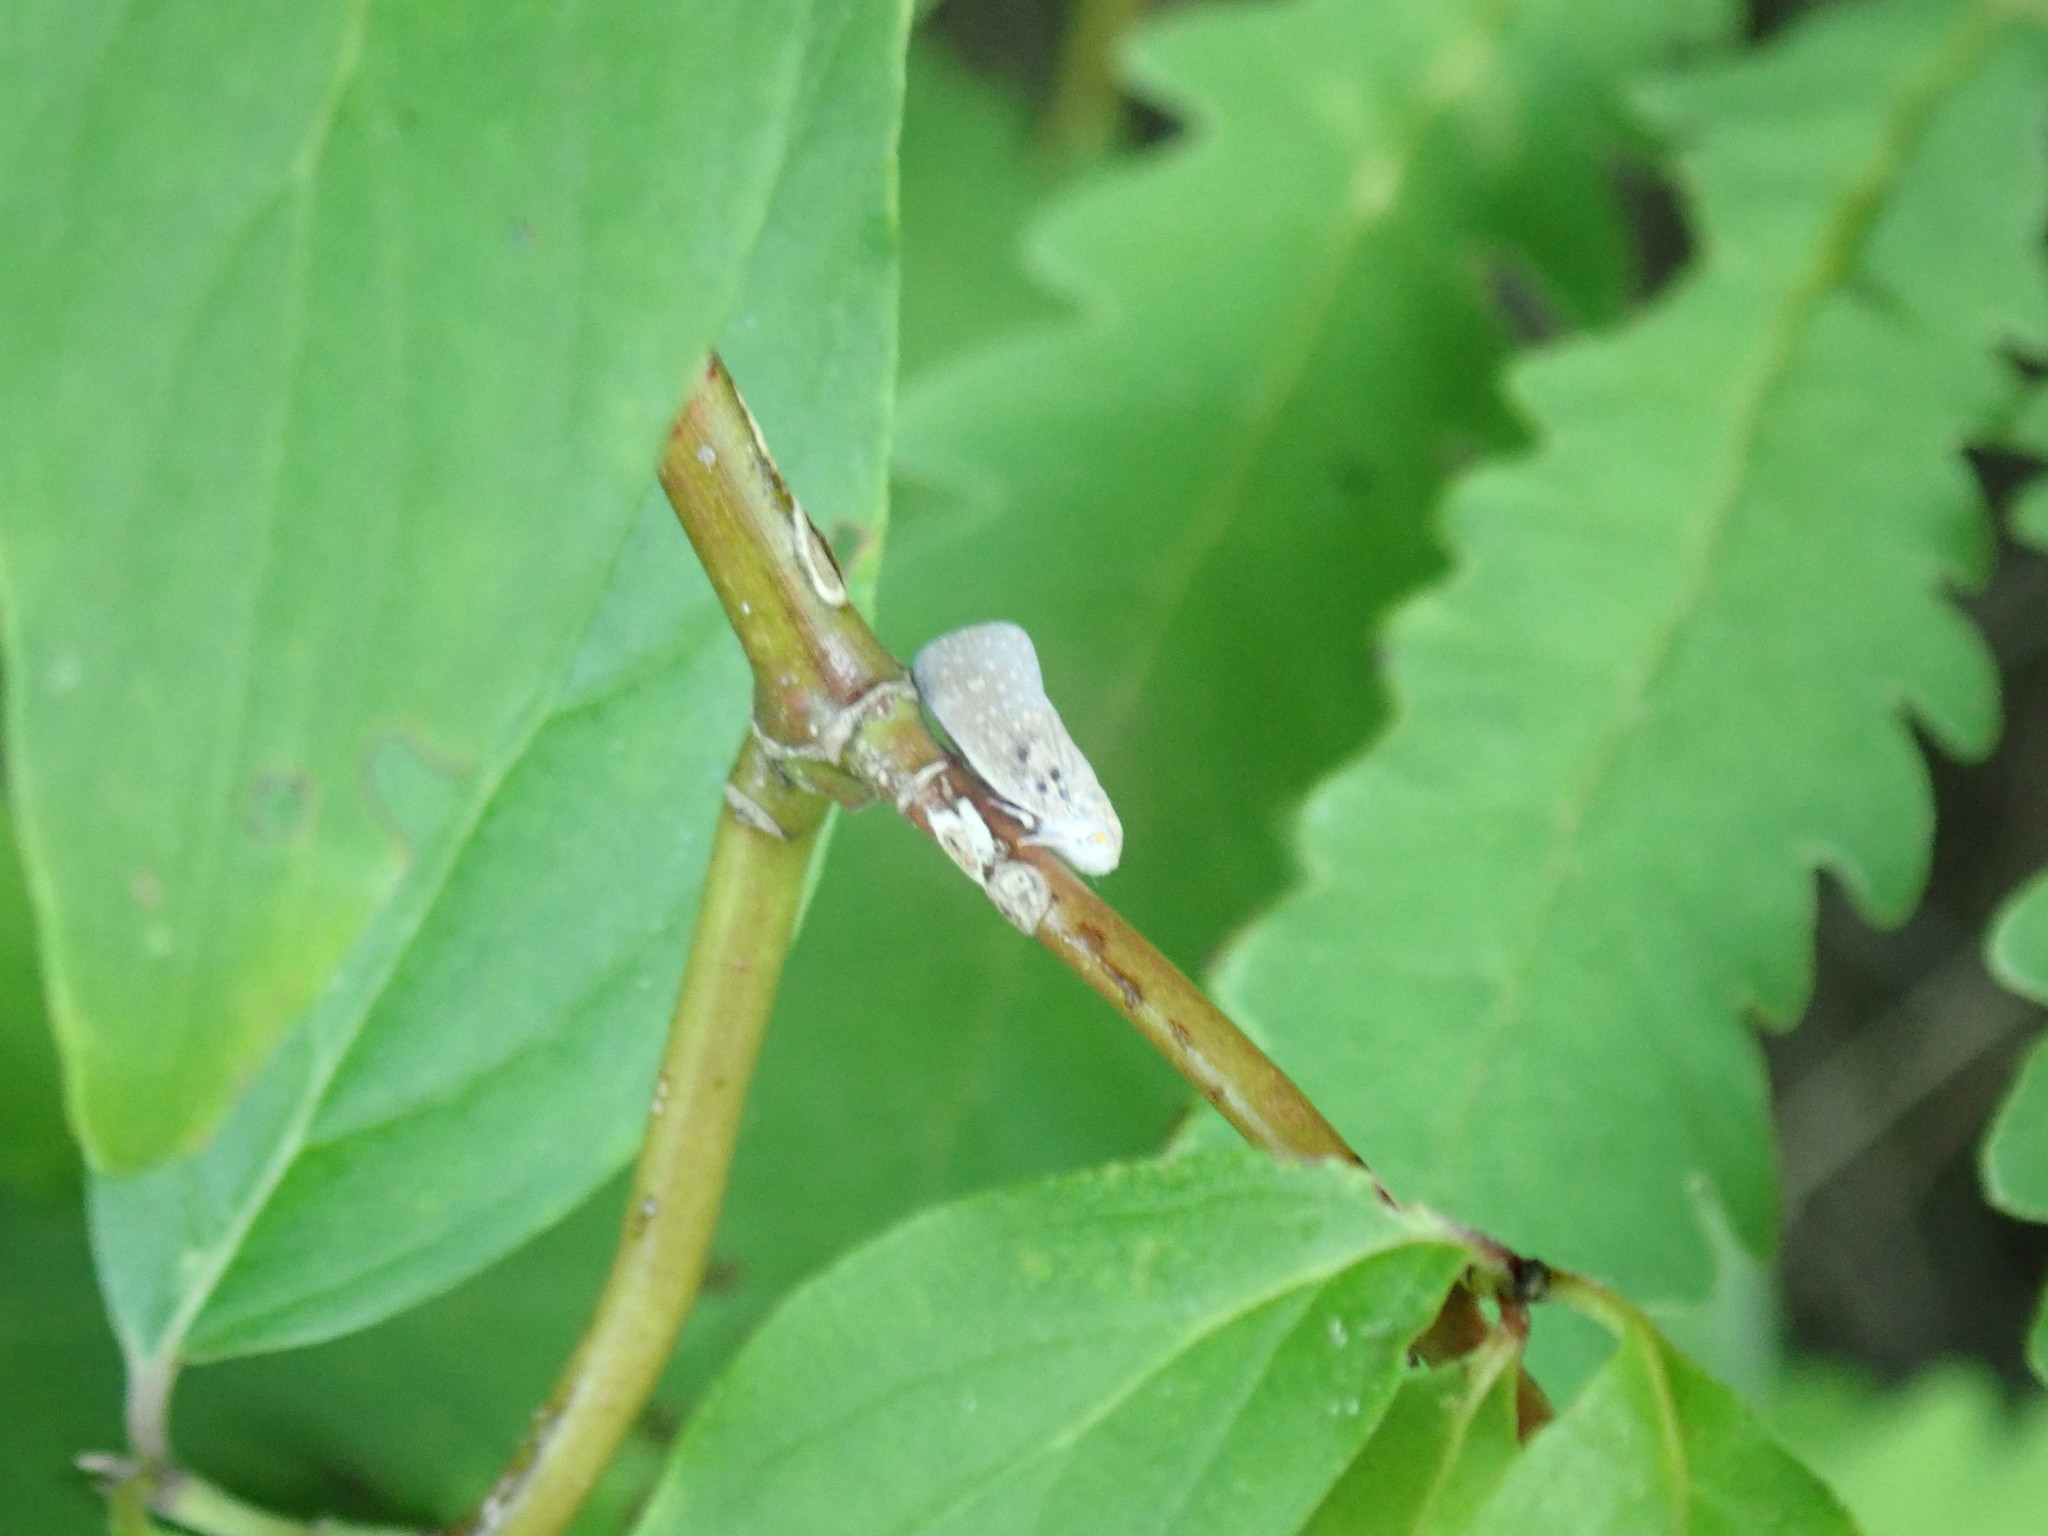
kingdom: Animalia
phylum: Arthropoda
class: Insecta
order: Hemiptera
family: Flatidae
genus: Metcalfa
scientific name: Metcalfa pruinosa
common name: Citrus flatid planthopper
